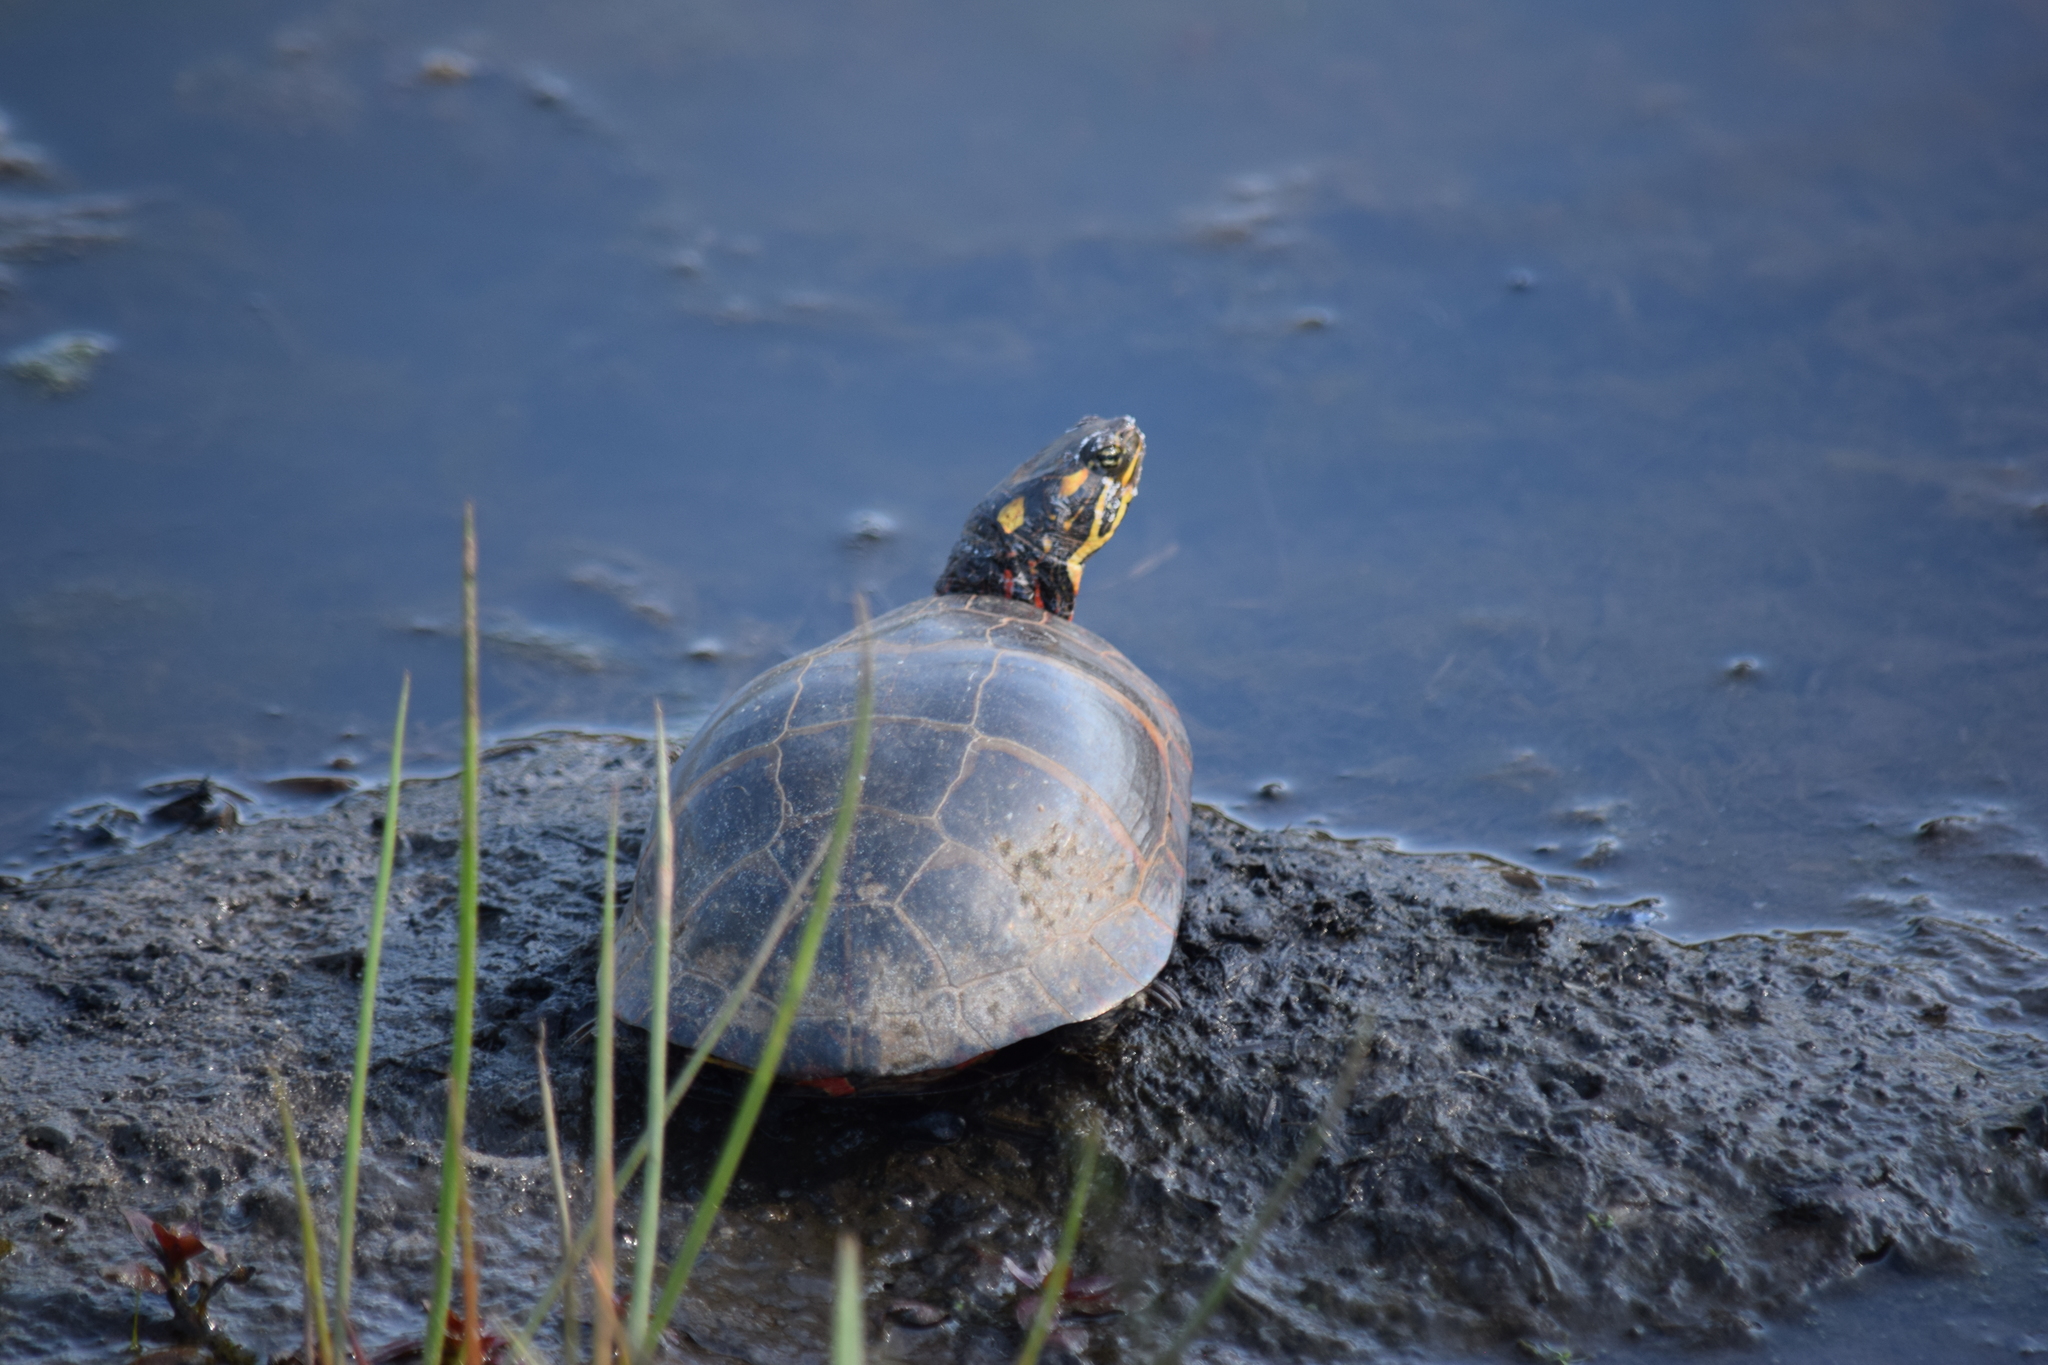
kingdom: Animalia
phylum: Chordata
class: Testudines
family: Emydidae
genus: Chrysemys
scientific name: Chrysemys picta
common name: Painted turtle
